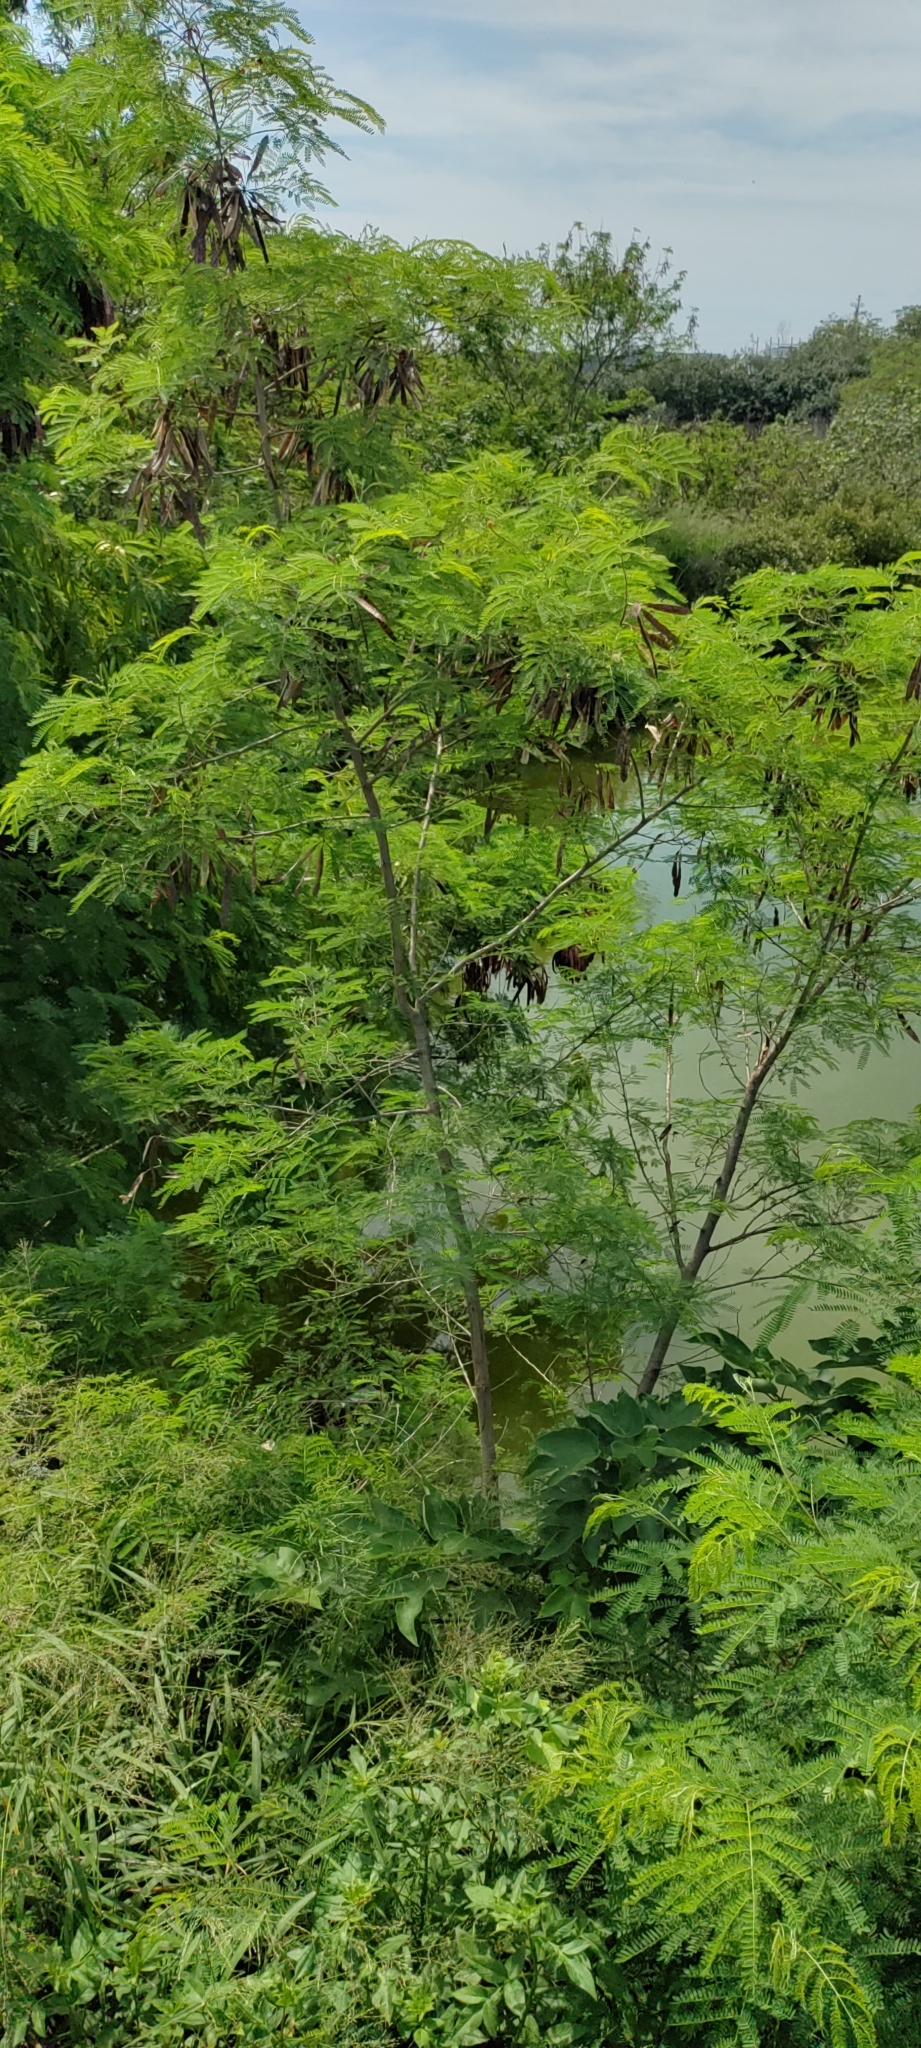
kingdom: Plantae
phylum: Tracheophyta
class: Magnoliopsida
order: Fabales
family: Fabaceae
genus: Leucaena
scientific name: Leucaena leucocephala
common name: White leadtree
